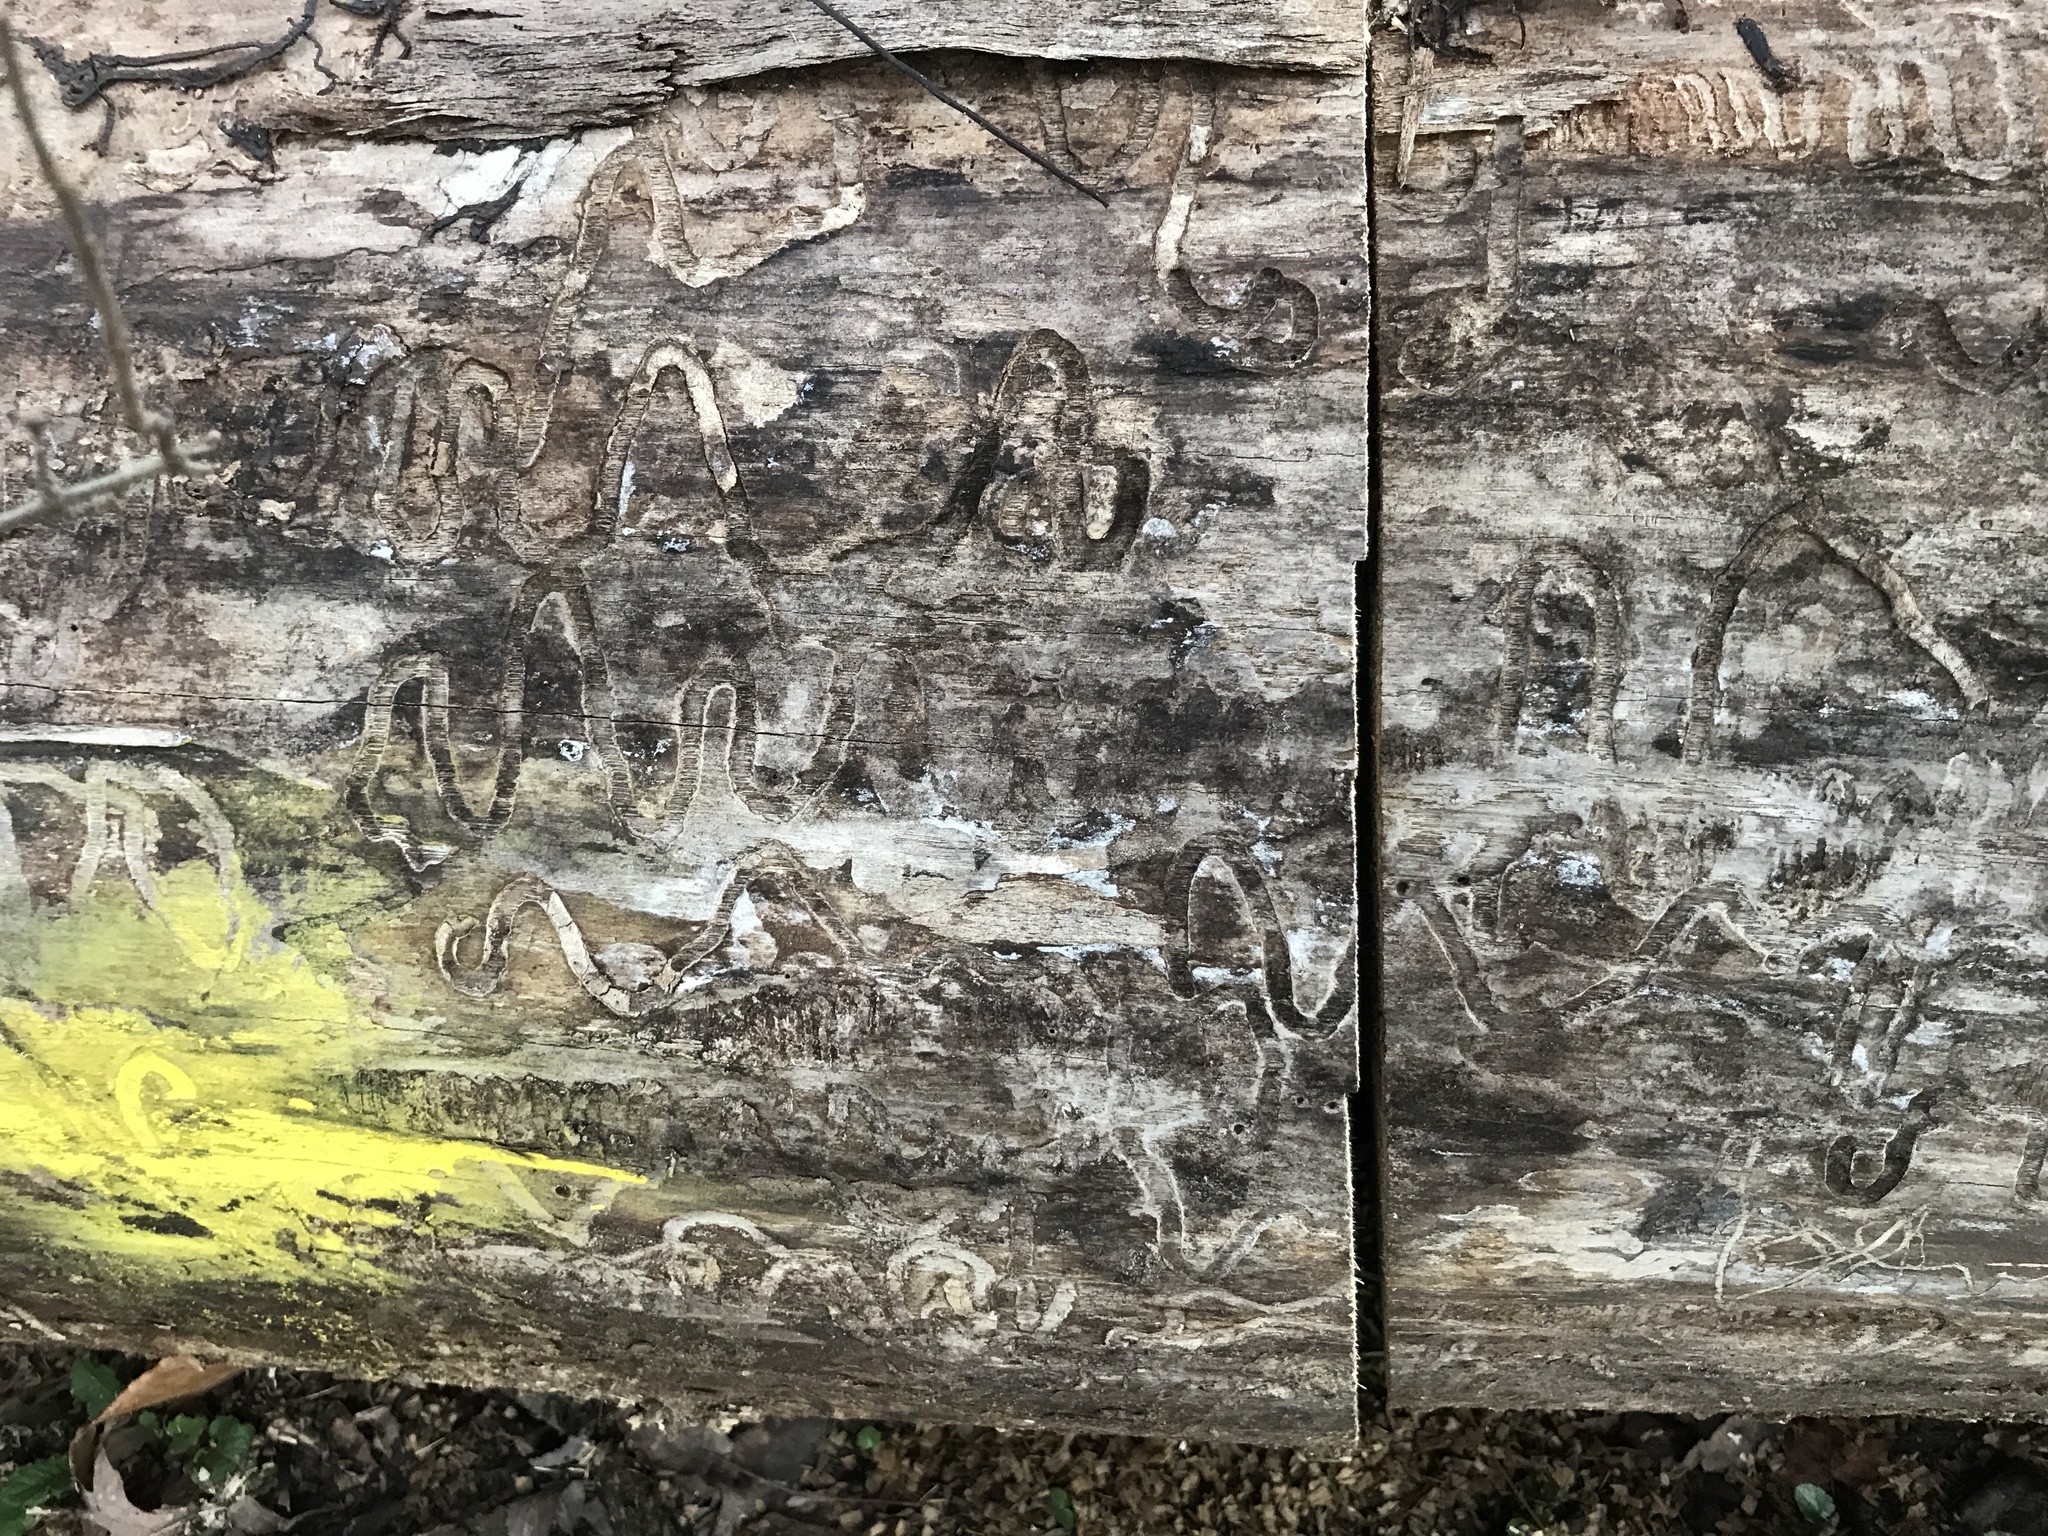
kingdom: Animalia
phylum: Arthropoda
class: Insecta
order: Coleoptera
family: Buprestidae
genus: Agrilus
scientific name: Agrilus planipennis
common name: Emerald ash borer
